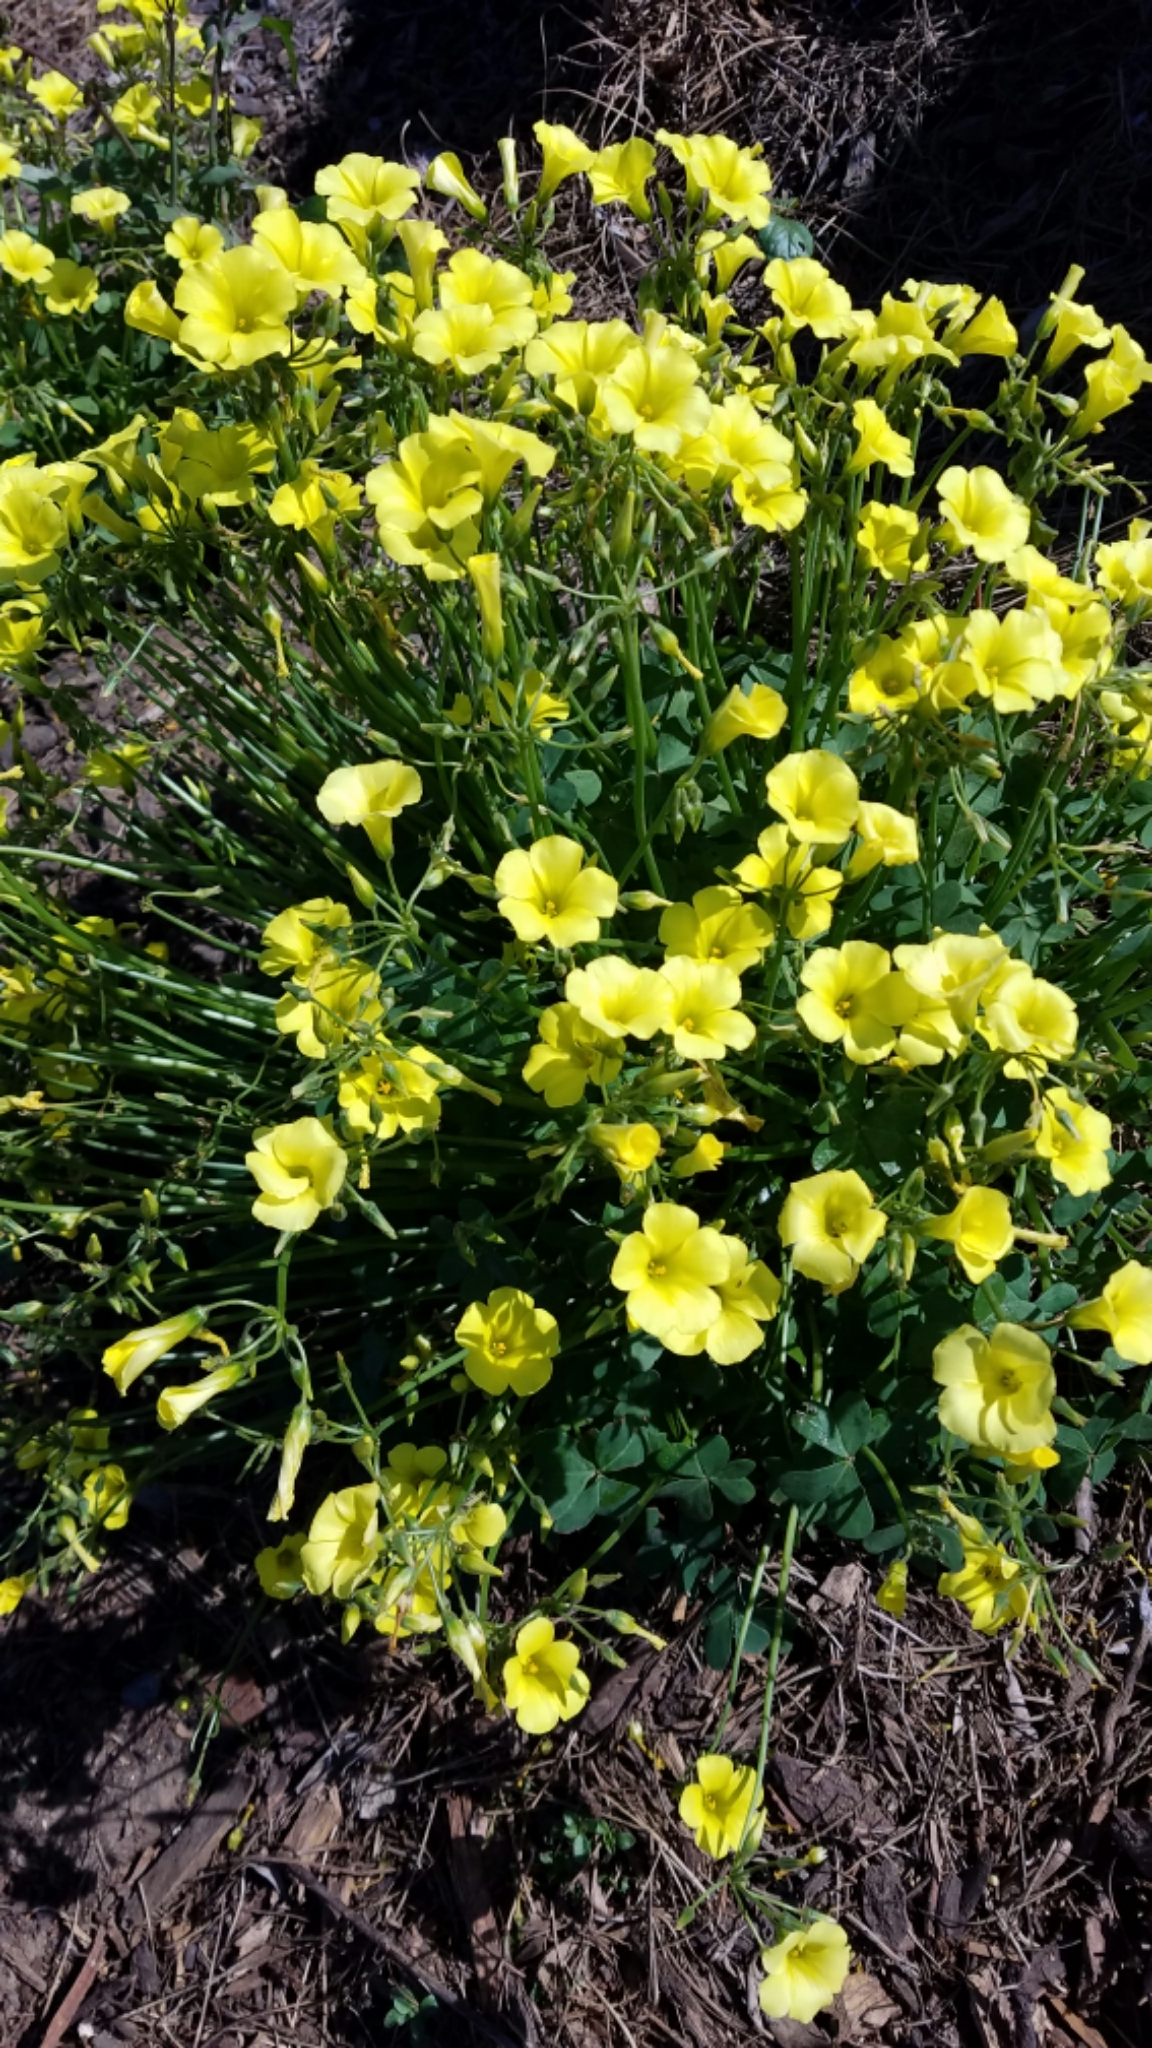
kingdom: Plantae
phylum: Tracheophyta
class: Magnoliopsida
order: Oxalidales
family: Oxalidaceae
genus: Oxalis
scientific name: Oxalis pes-caprae
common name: Bermuda-buttercup
